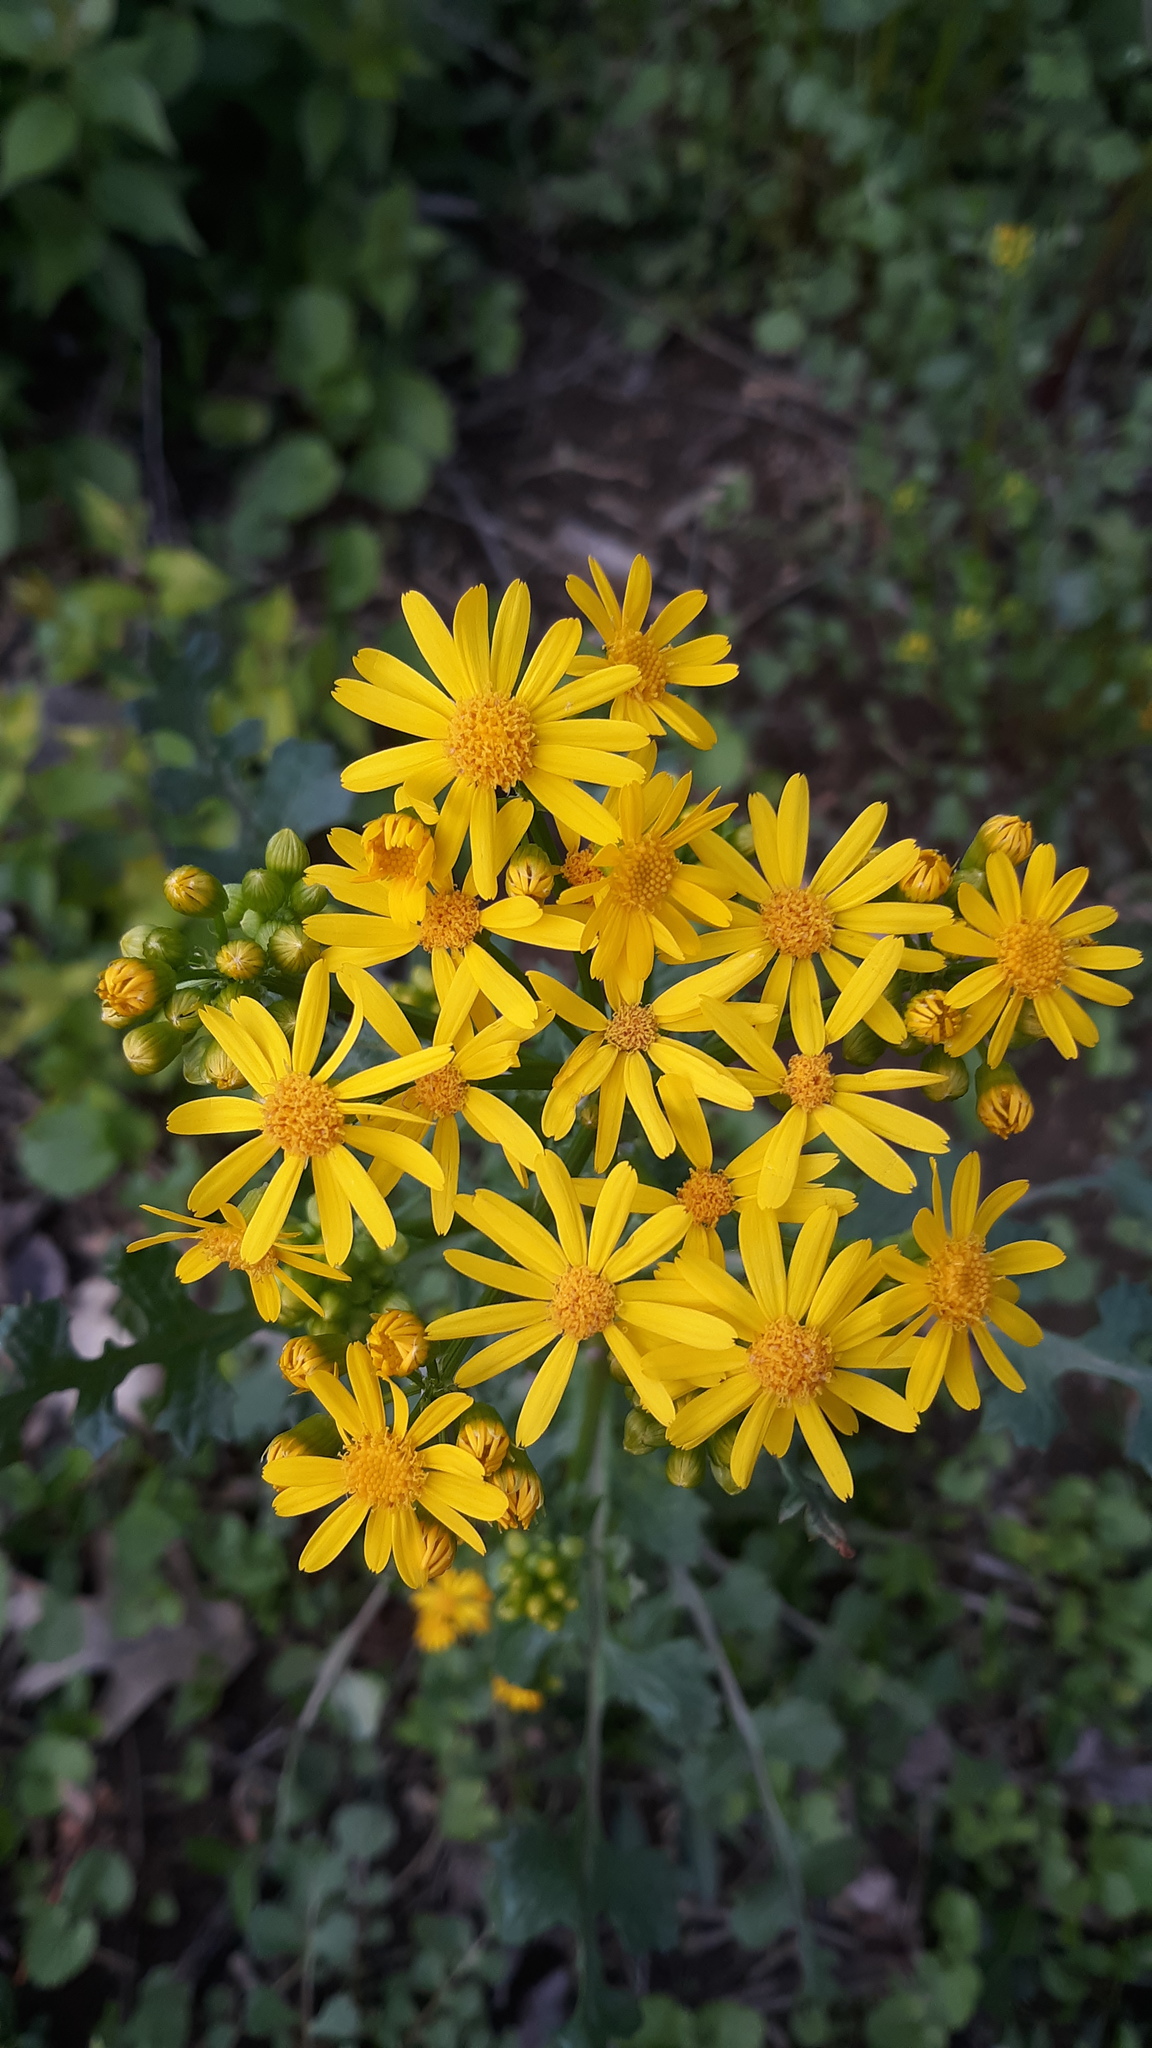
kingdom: Plantae
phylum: Tracheophyta
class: Magnoliopsida
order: Asterales
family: Asteraceae
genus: Packera
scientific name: Packera glabella
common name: Butterweed
